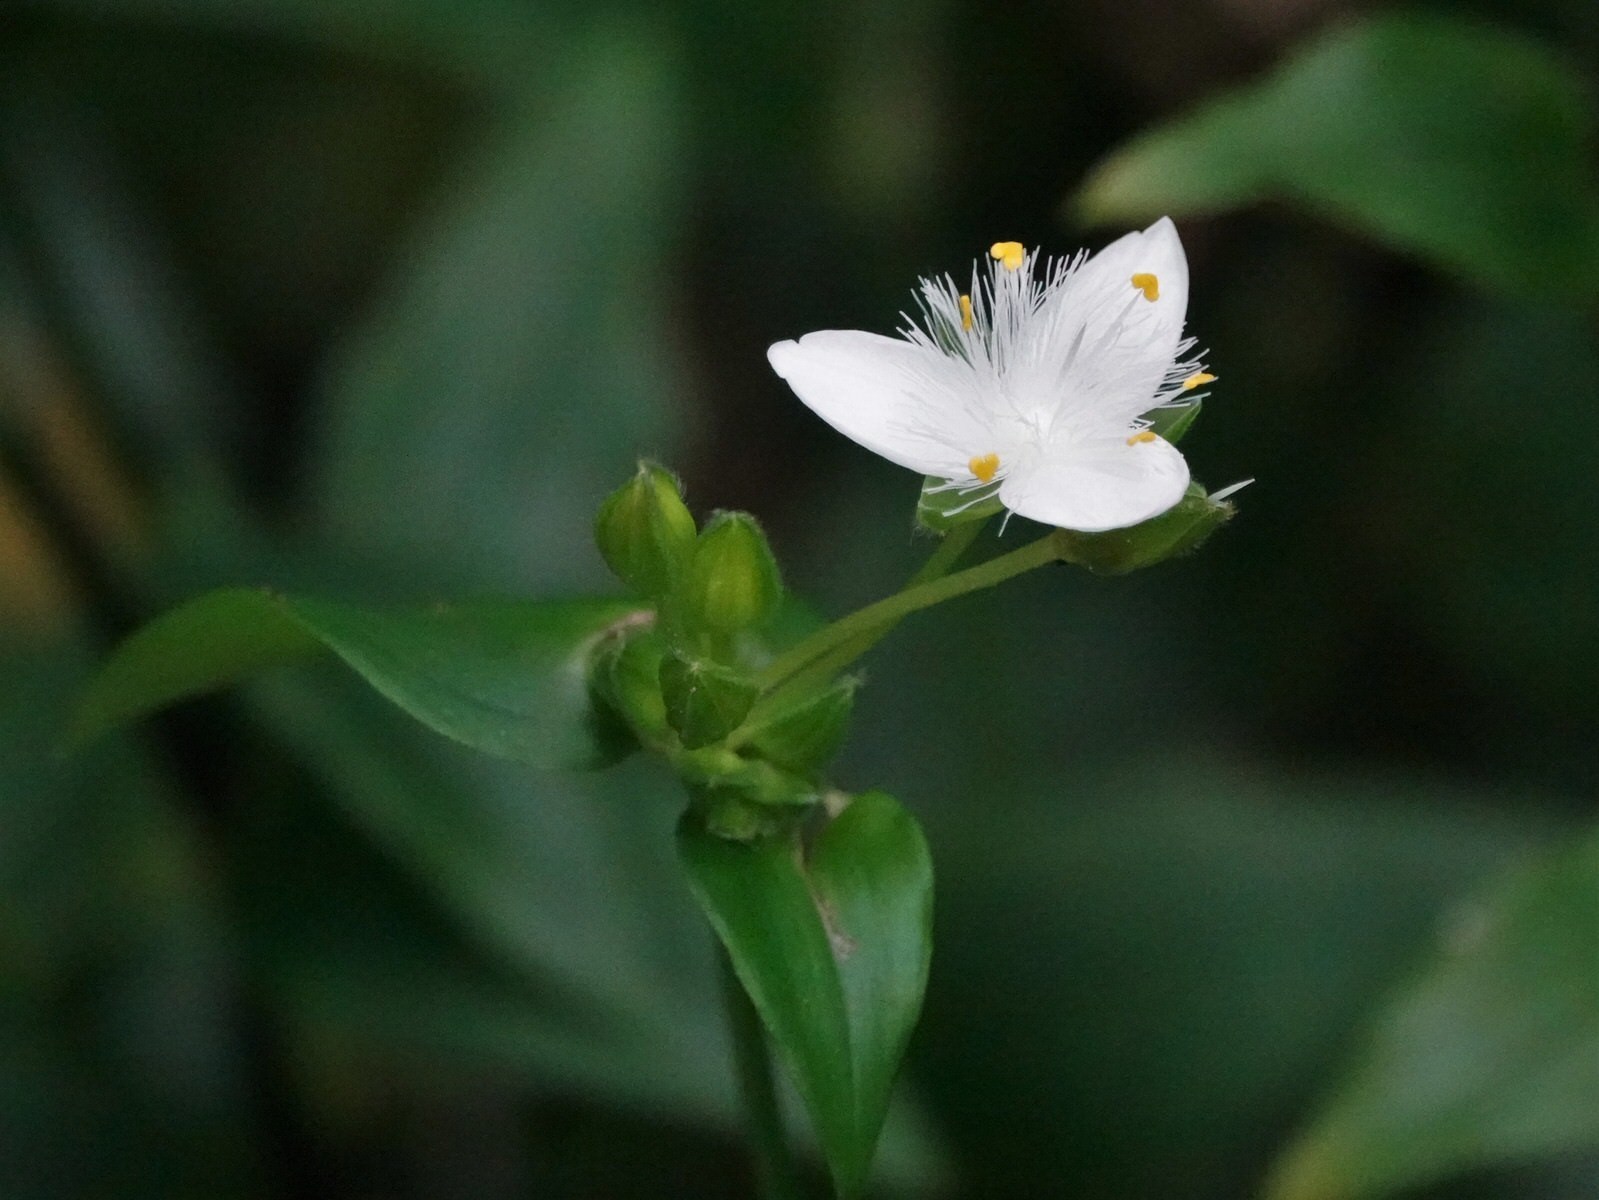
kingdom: Plantae
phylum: Tracheophyta
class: Liliopsida
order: Commelinales
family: Commelinaceae
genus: Tradescantia
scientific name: Tradescantia fluminensis
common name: Wandering-jew
